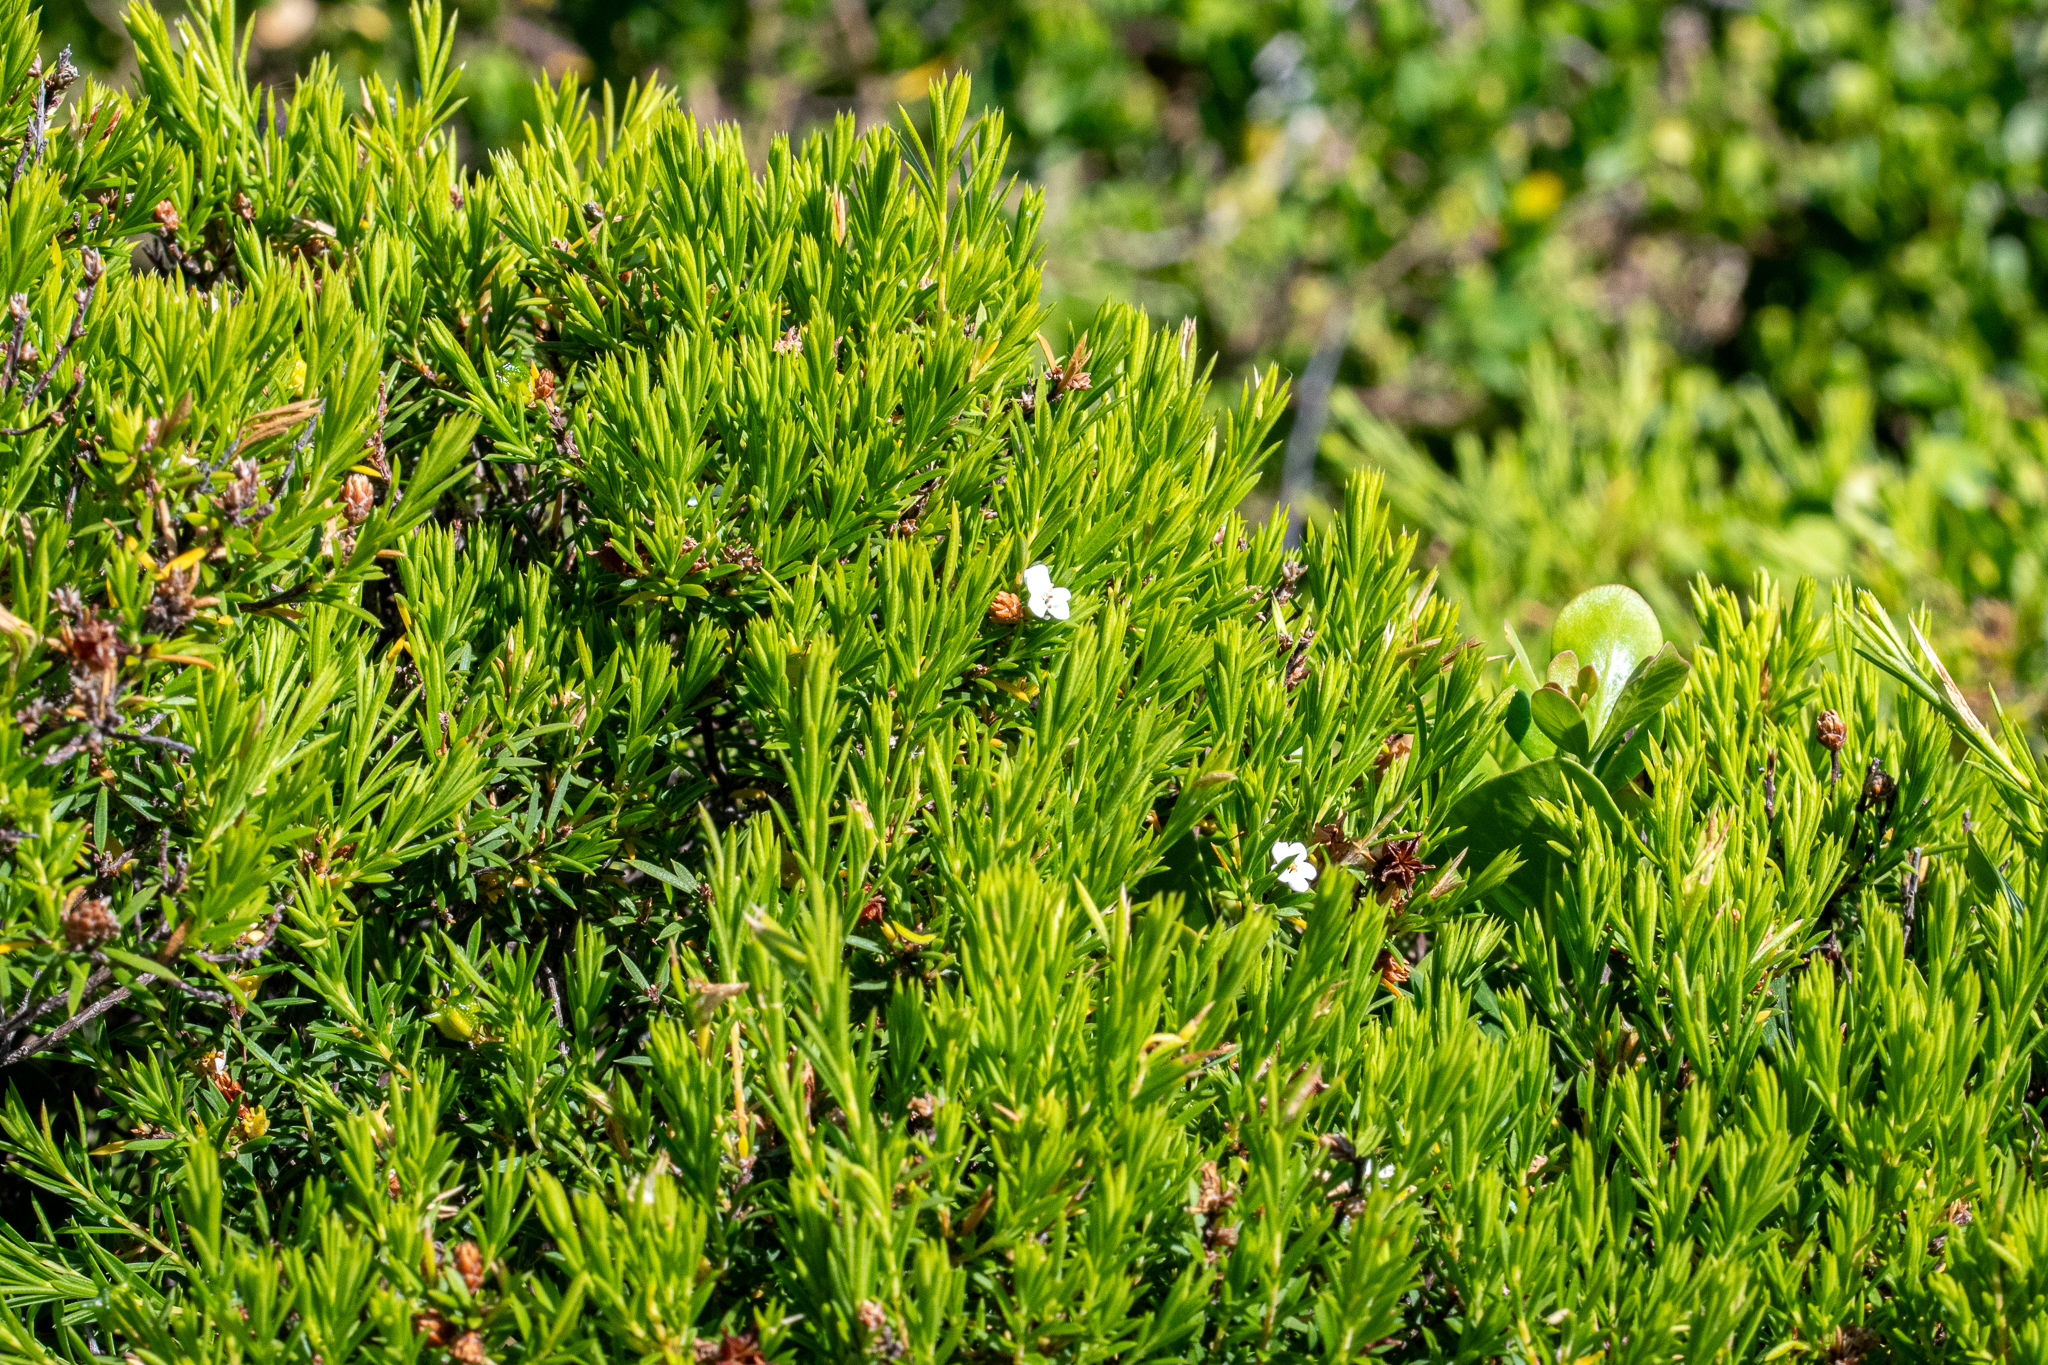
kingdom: Plantae
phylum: Tracheophyta
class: Magnoliopsida
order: Sapindales
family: Rutaceae
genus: Coleonema
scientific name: Coleonema album
